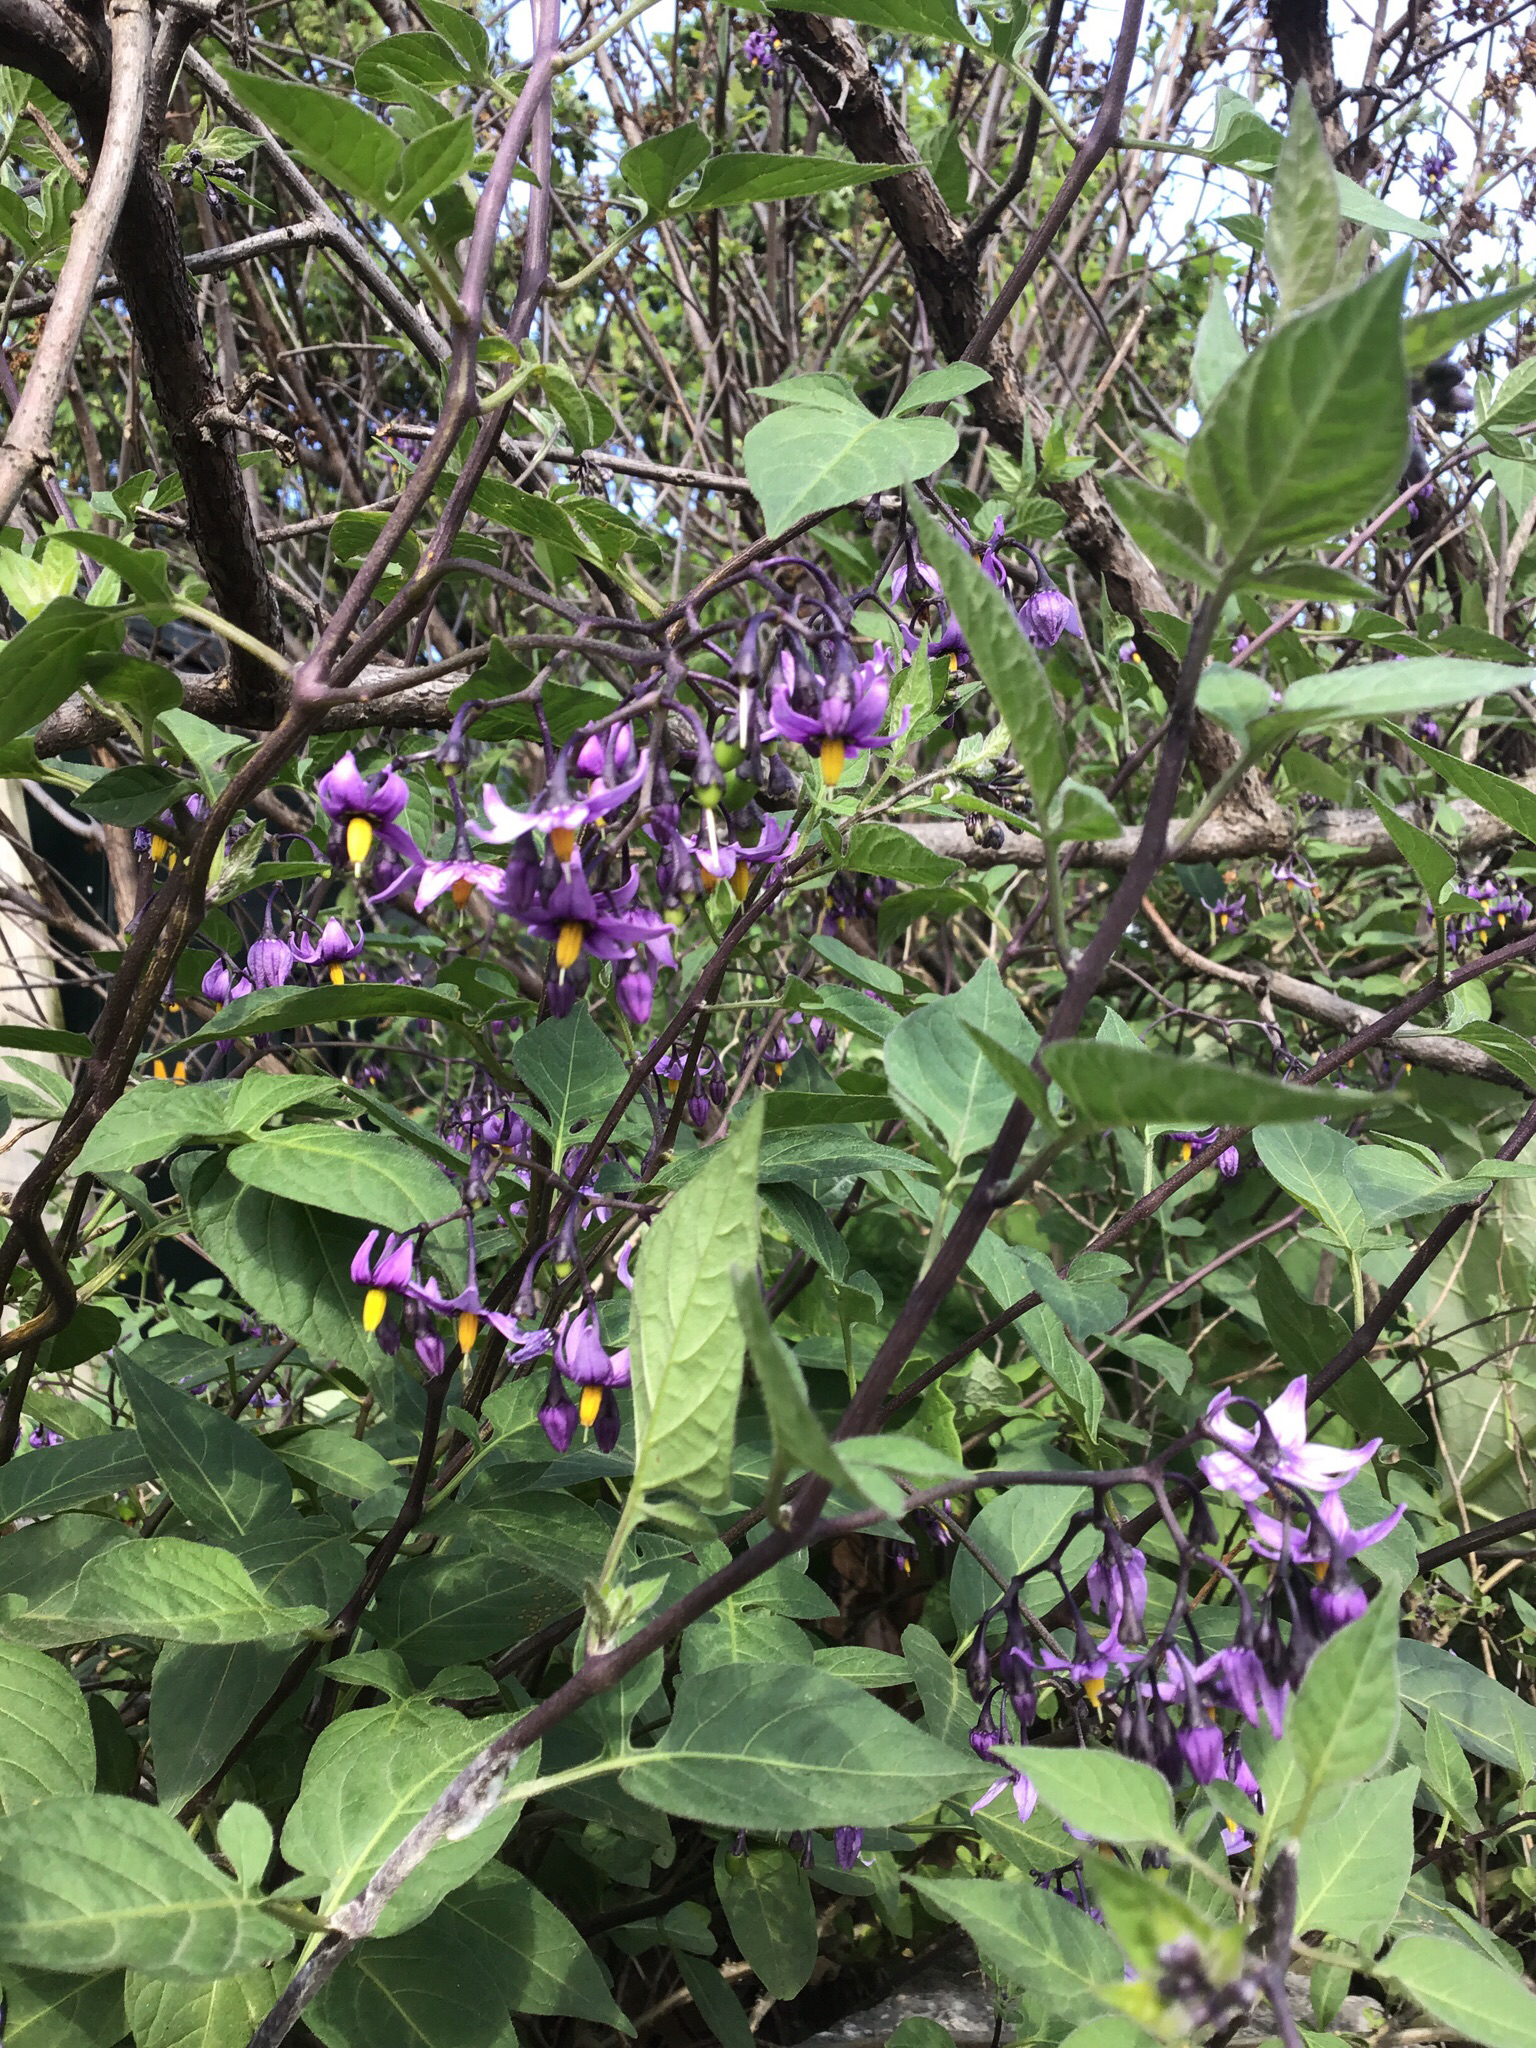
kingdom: Plantae
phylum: Tracheophyta
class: Magnoliopsida
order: Solanales
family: Solanaceae
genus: Solanum
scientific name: Solanum dulcamara
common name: Climbing nightshade
